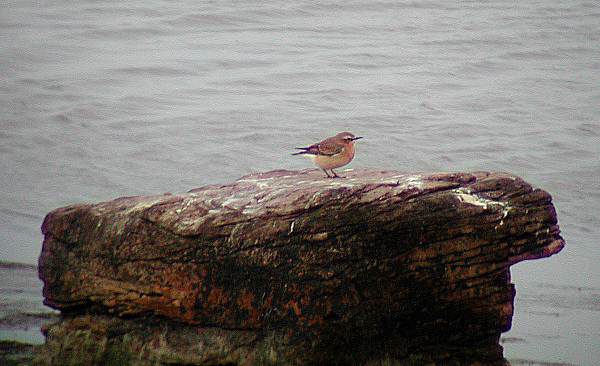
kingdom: Animalia
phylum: Chordata
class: Aves
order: Passeriformes
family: Muscicapidae
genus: Oenanthe
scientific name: Oenanthe oenanthe
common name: Northern wheatear
